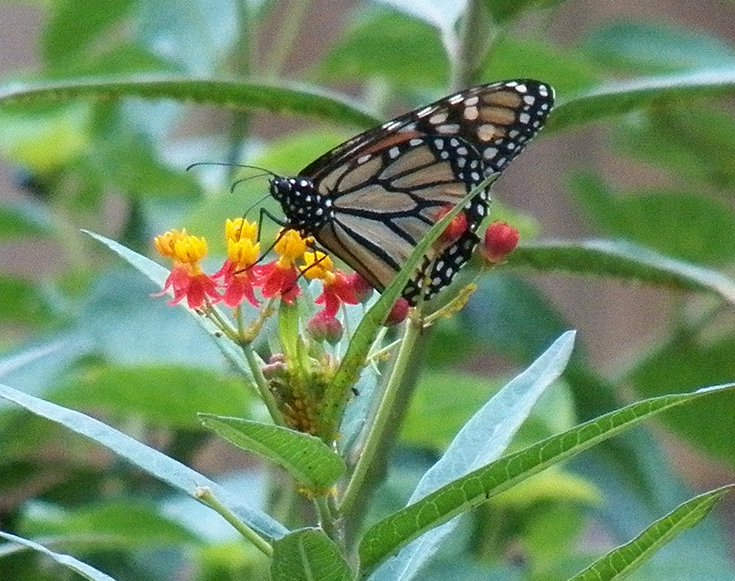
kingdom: Animalia
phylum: Arthropoda
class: Insecta
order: Lepidoptera
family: Nymphalidae
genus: Danaus
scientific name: Danaus plexippus
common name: Monarch
